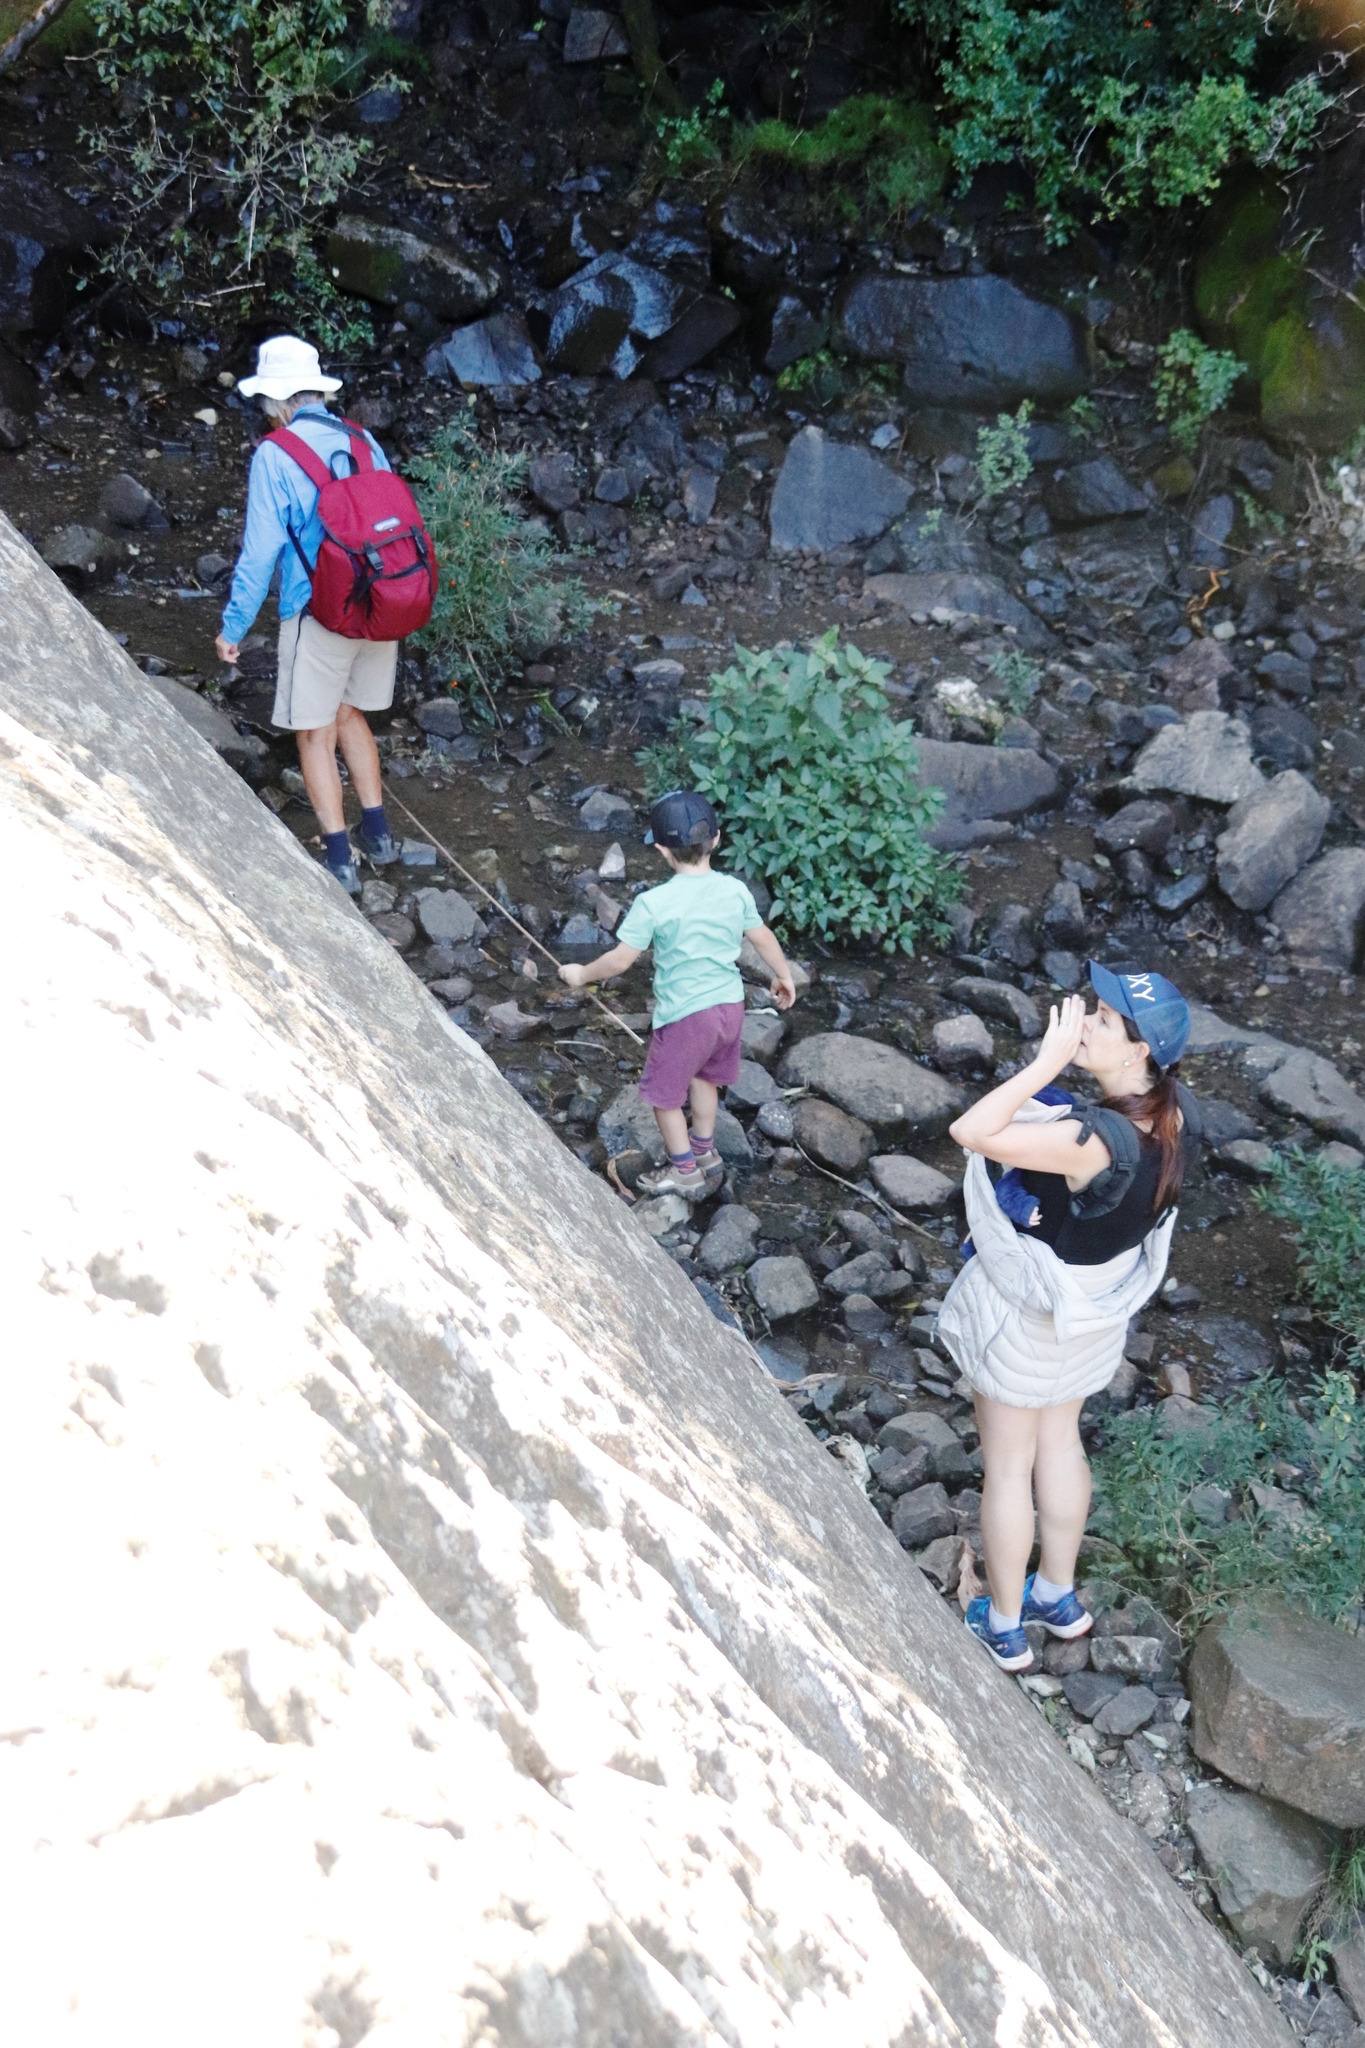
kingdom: Plantae
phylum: Tracheophyta
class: Magnoliopsida
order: Solanales
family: Solanaceae
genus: Solanum
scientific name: Solanum pseudocapsicum
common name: Jerusalem cherry
